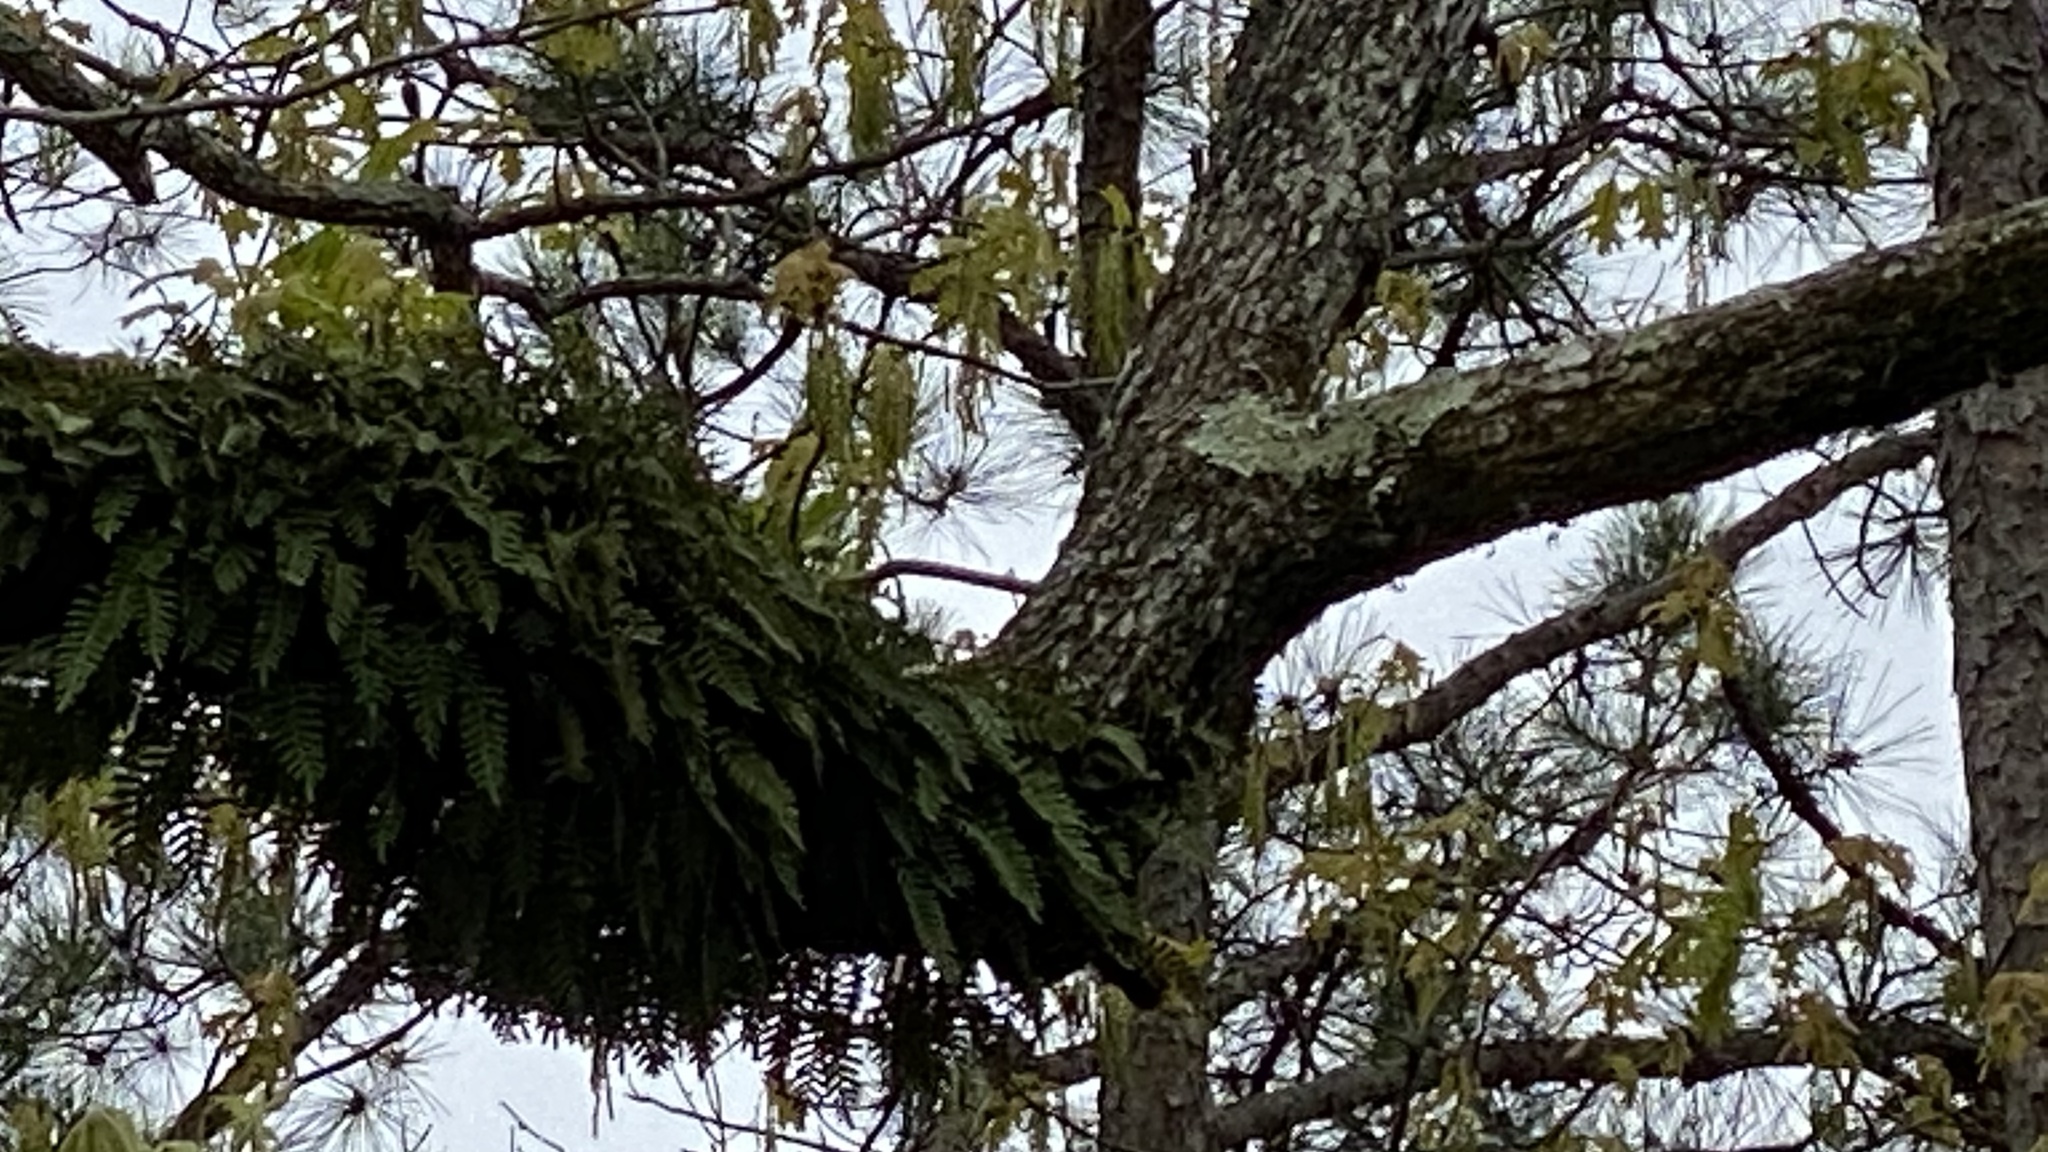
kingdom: Plantae
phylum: Tracheophyta
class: Polypodiopsida
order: Polypodiales
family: Polypodiaceae
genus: Pleopeltis
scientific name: Pleopeltis michauxiana
